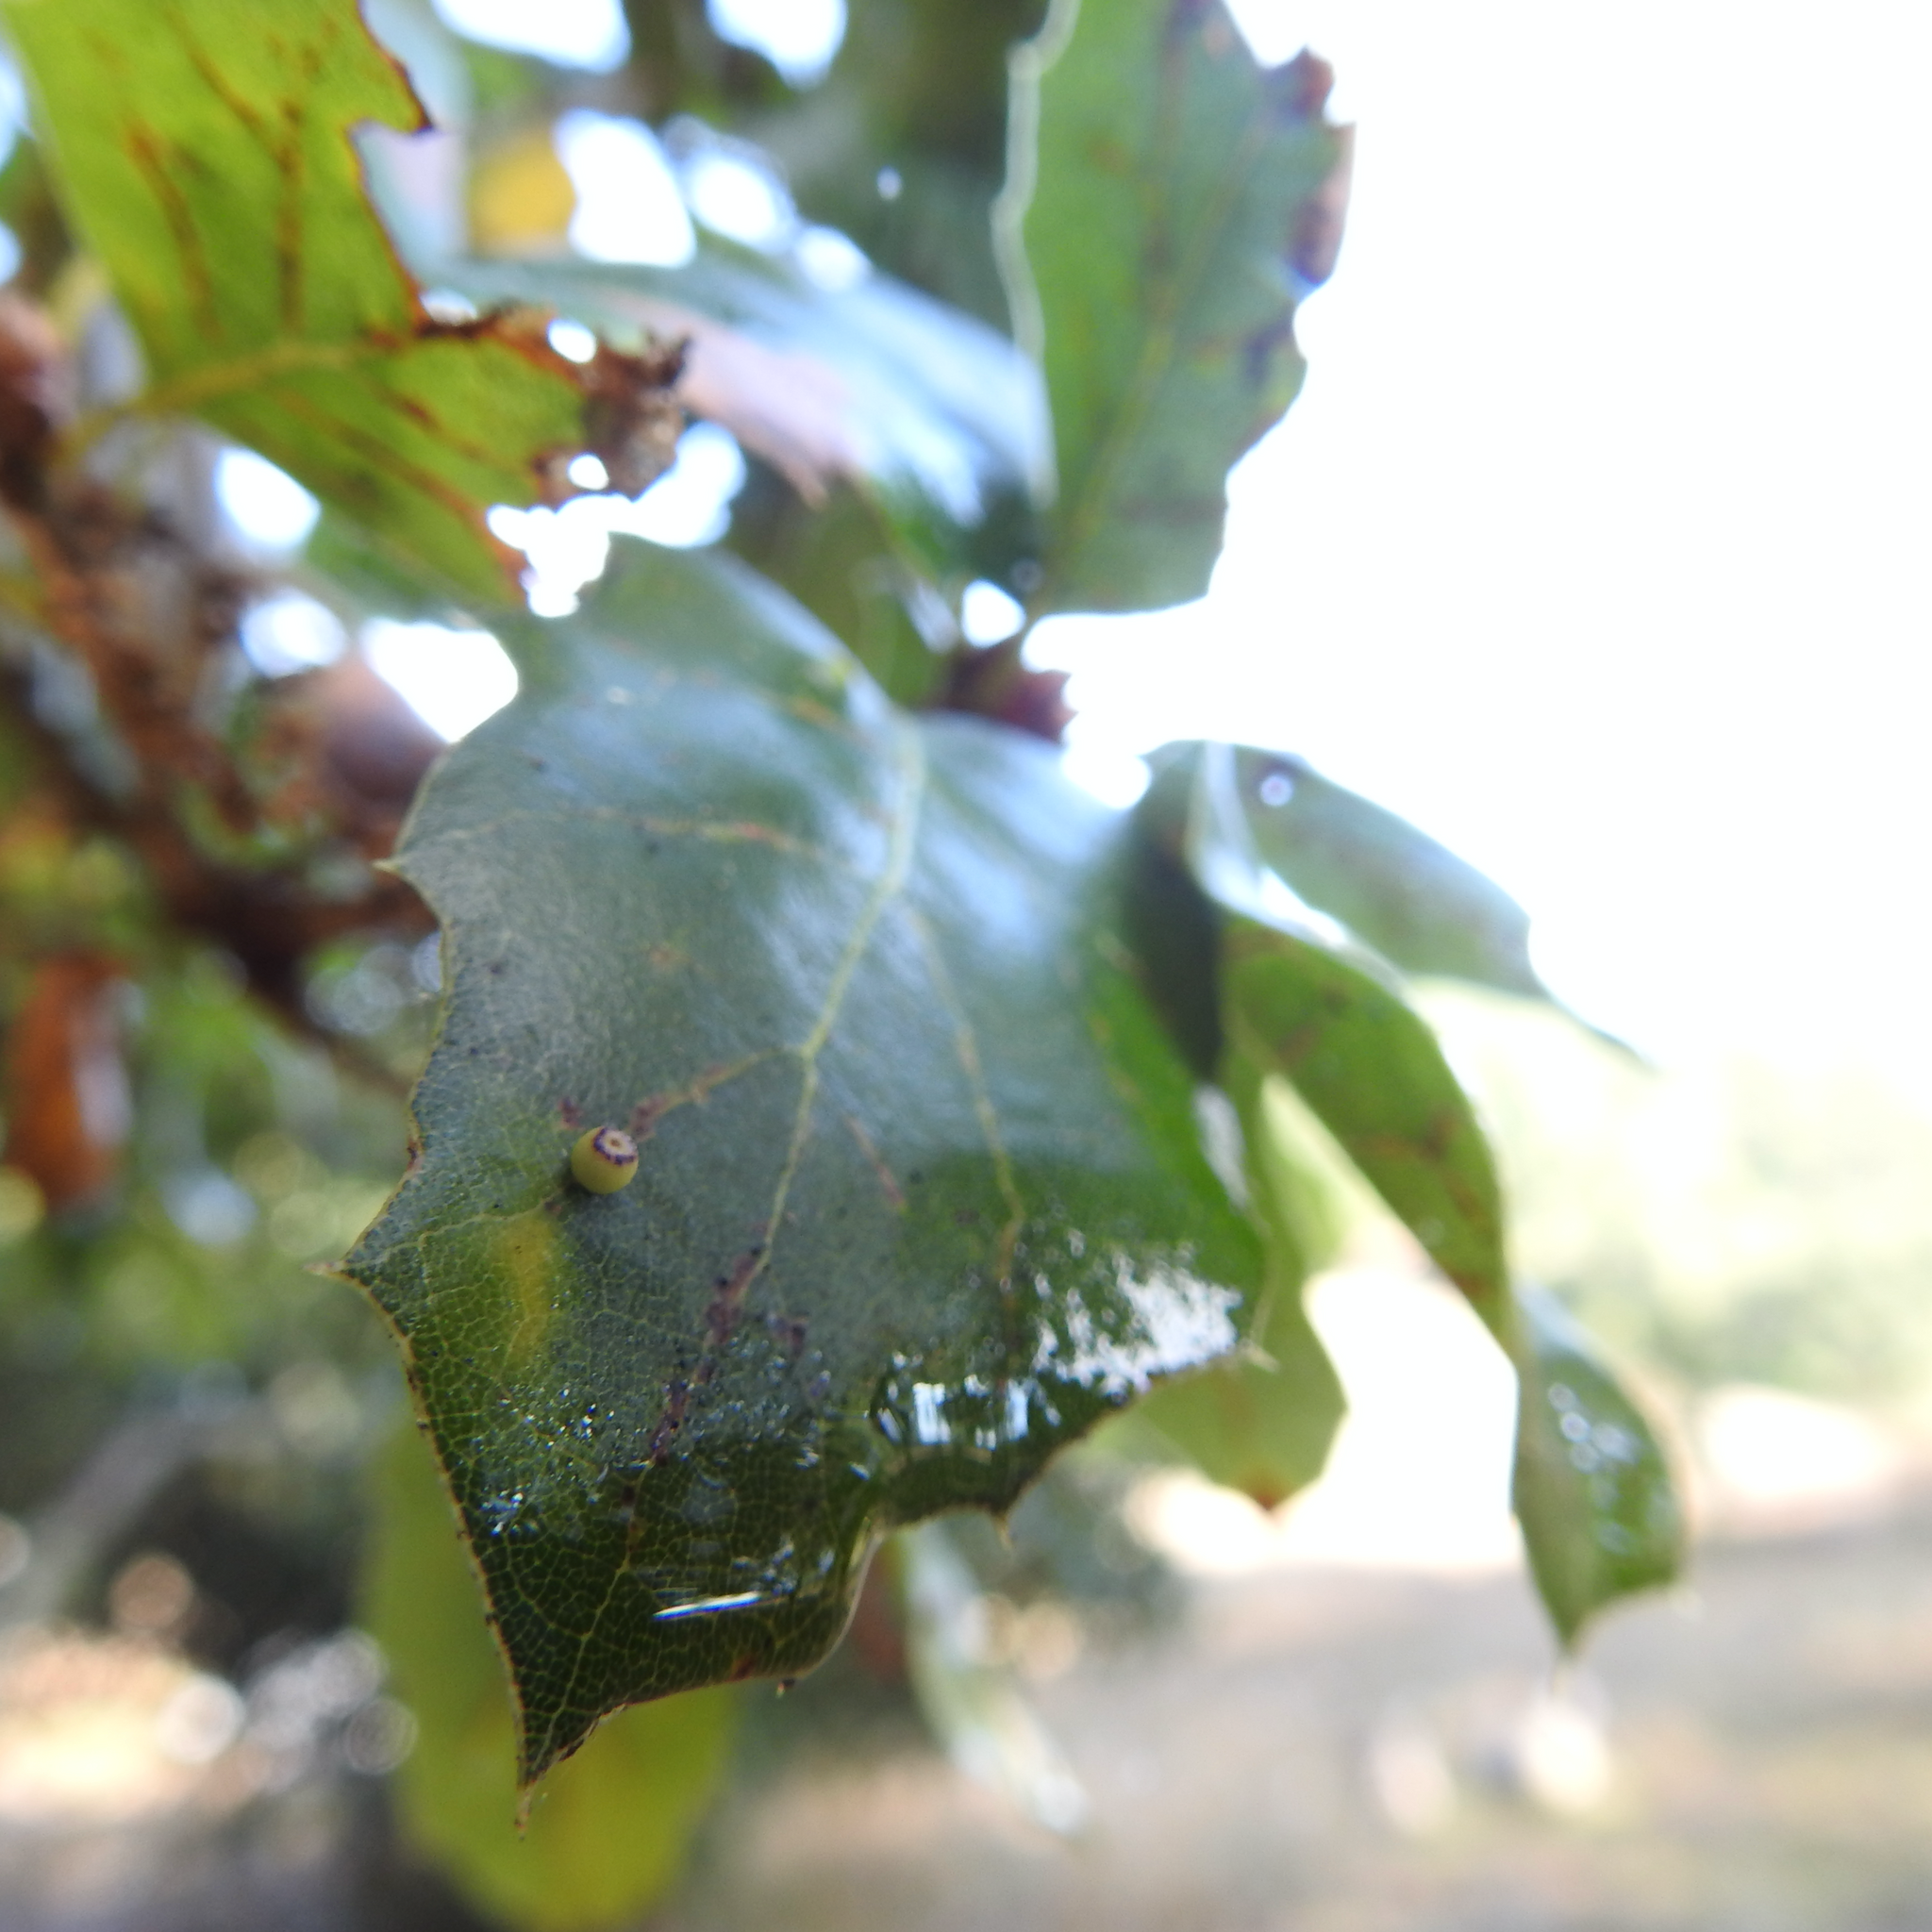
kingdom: Animalia
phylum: Arthropoda
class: Insecta
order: Hymenoptera
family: Cynipidae
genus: Dryocosmus
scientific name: Dryocosmus
